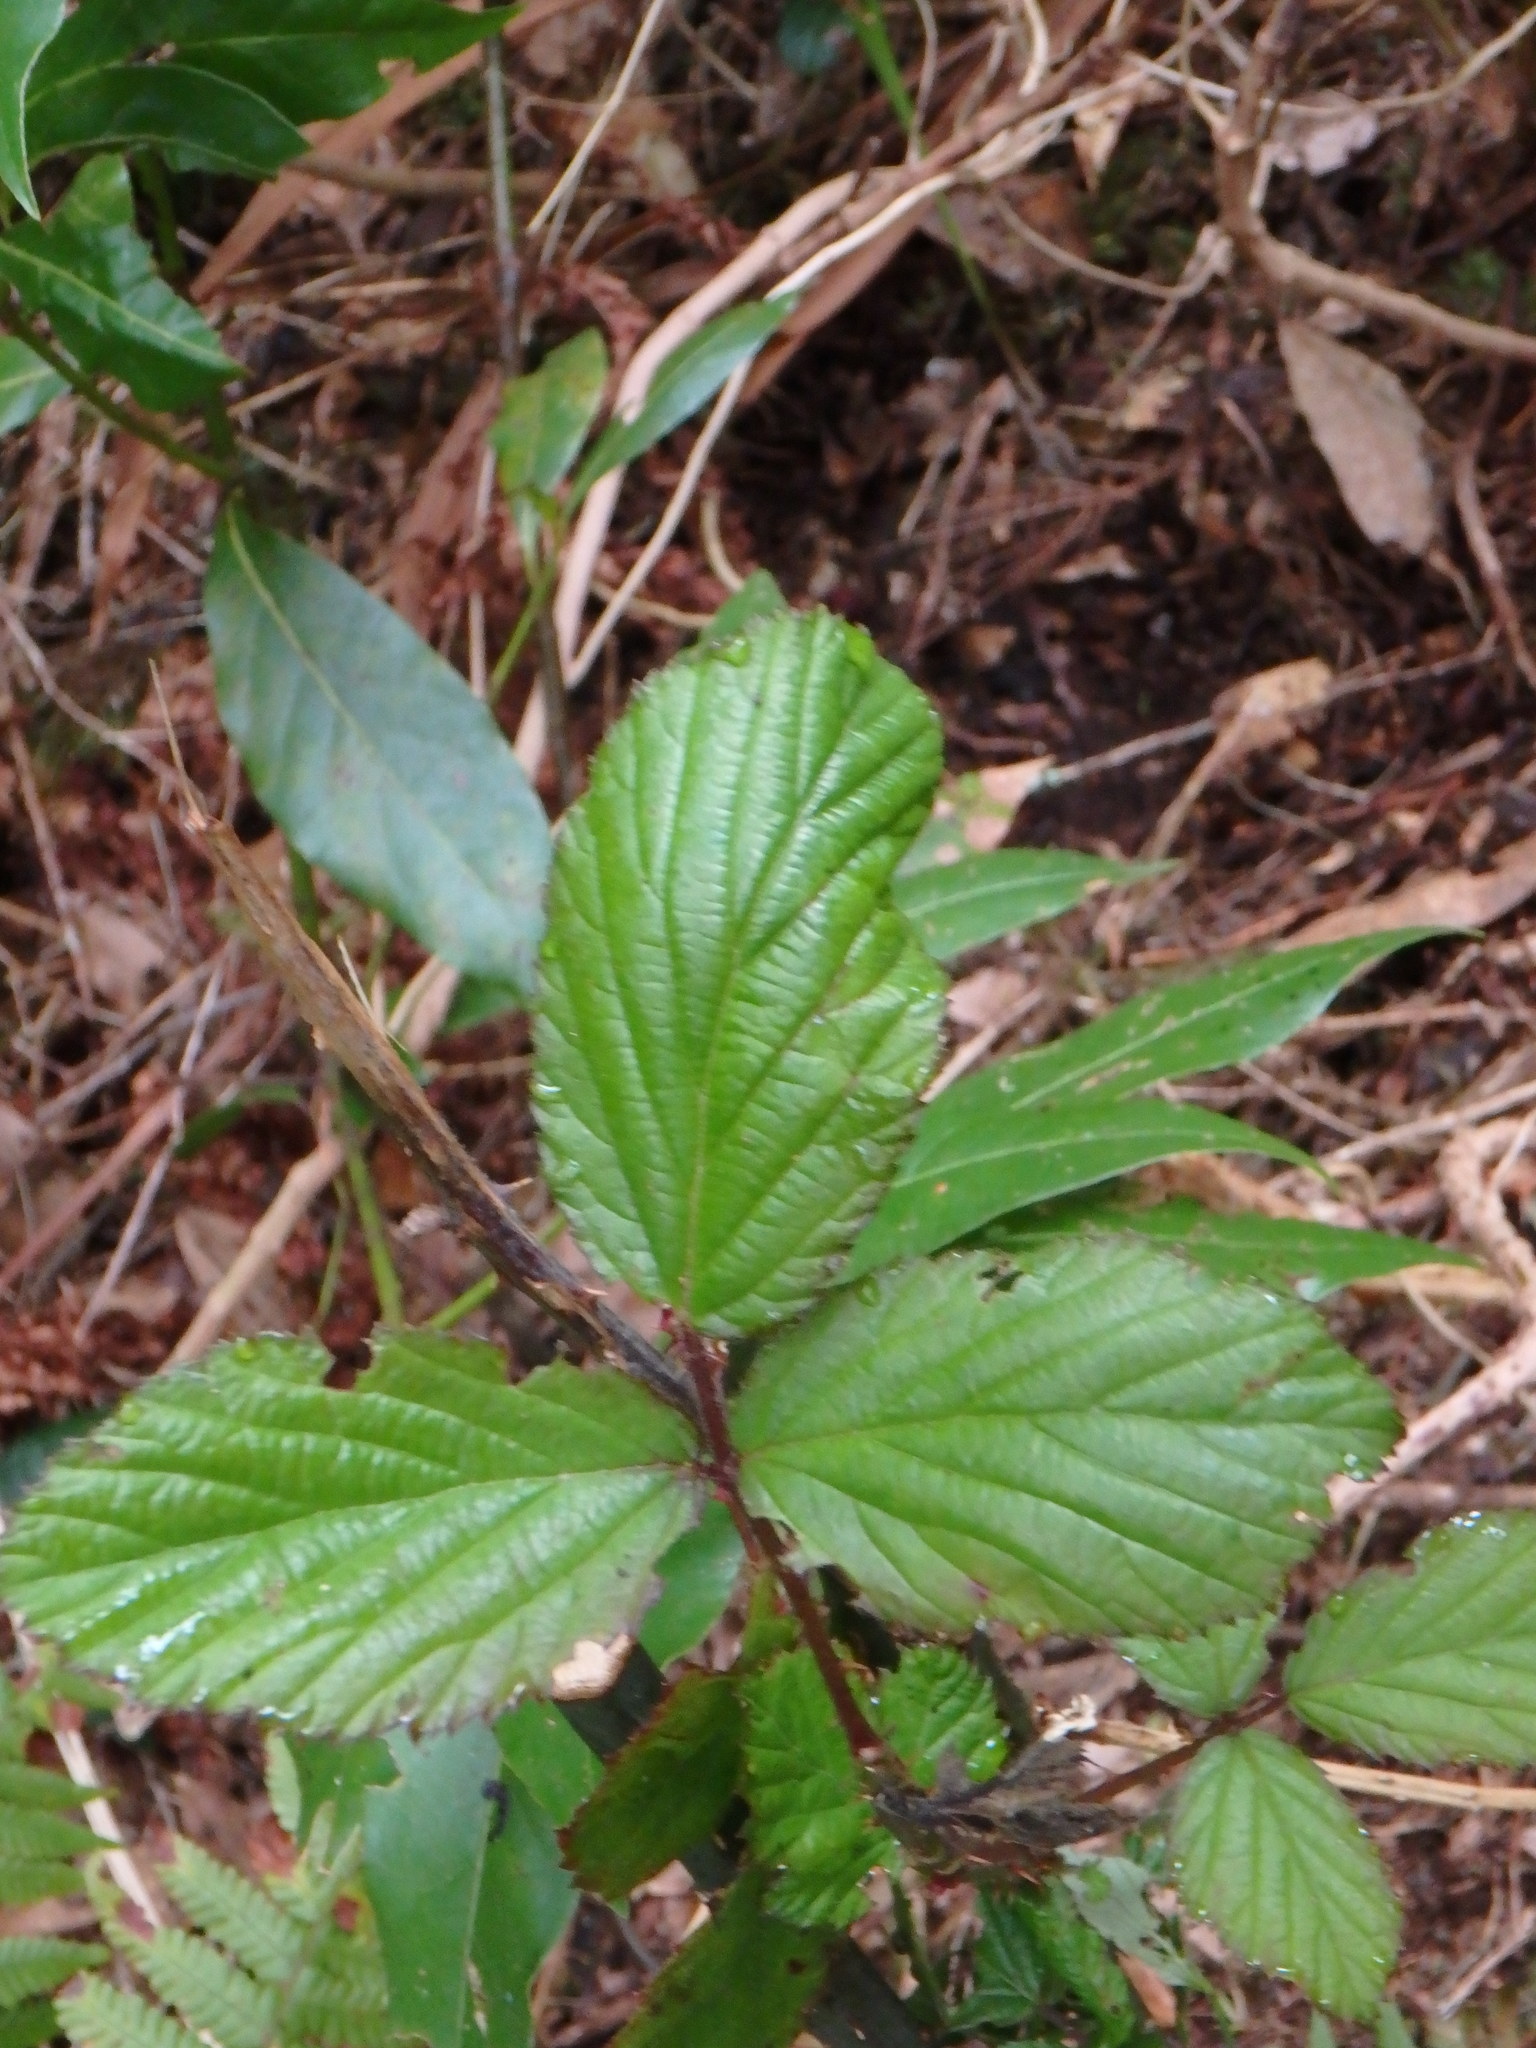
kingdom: Plantae
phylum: Tracheophyta
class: Magnoliopsida
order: Rosales
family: Rosaceae
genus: Rubus
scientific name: Rubus ulmifolius
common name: Elmleaf blackberry
